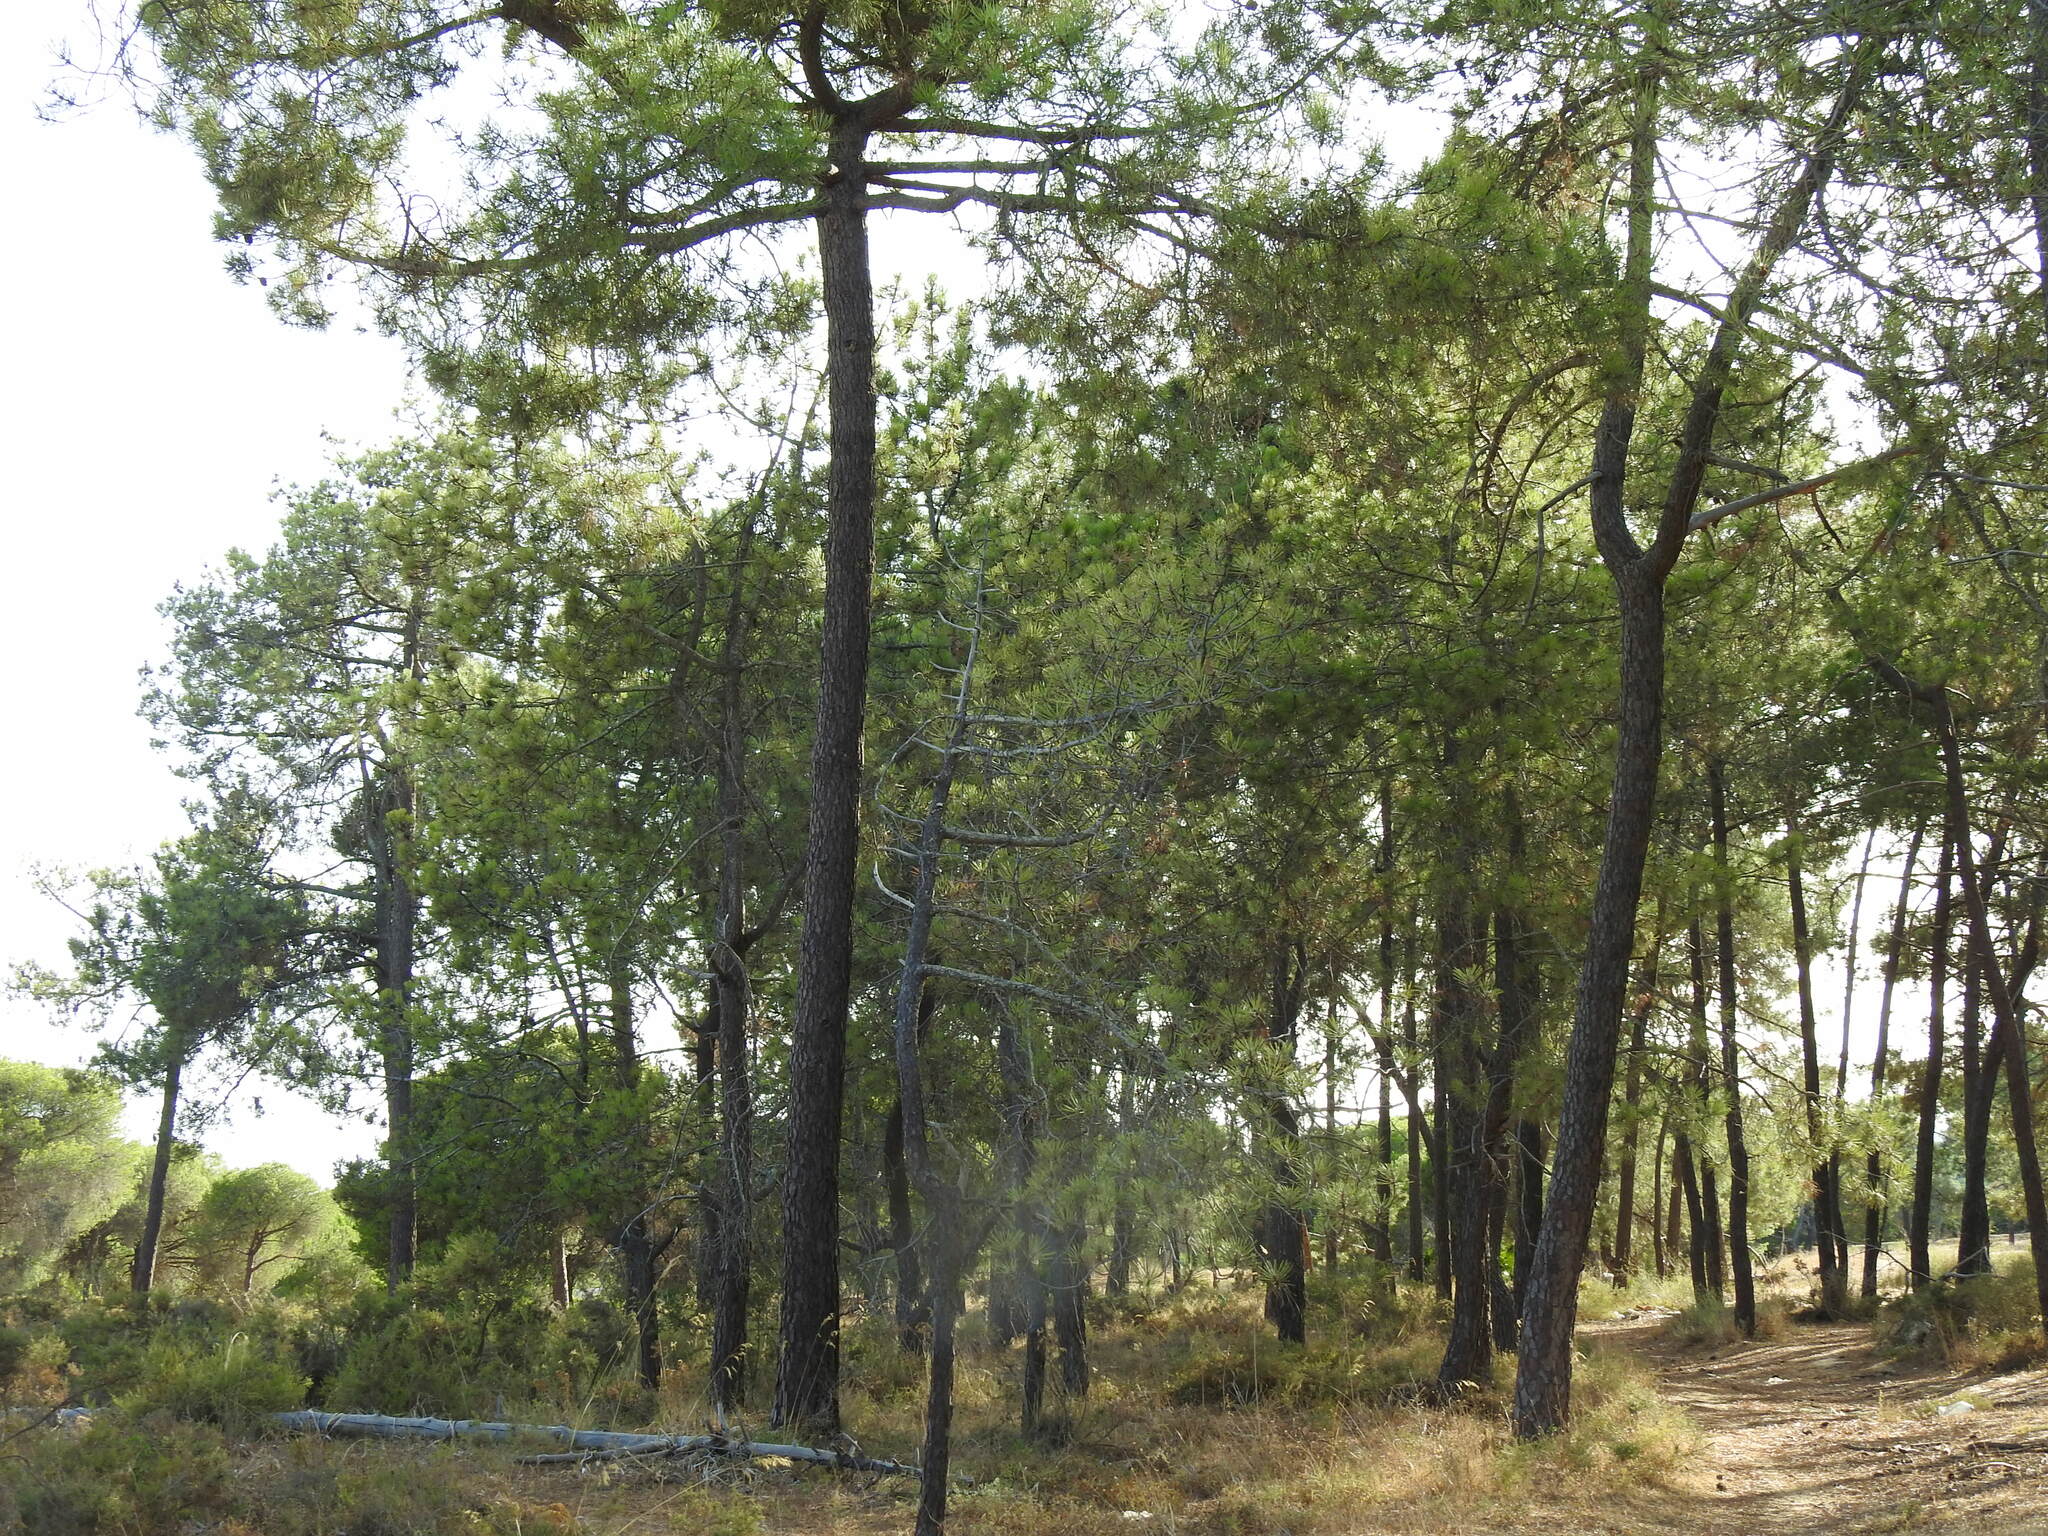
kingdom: Plantae
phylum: Tracheophyta
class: Pinopsida
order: Pinales
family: Pinaceae
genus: Pinus
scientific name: Pinus pinaster
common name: Maritime pine
